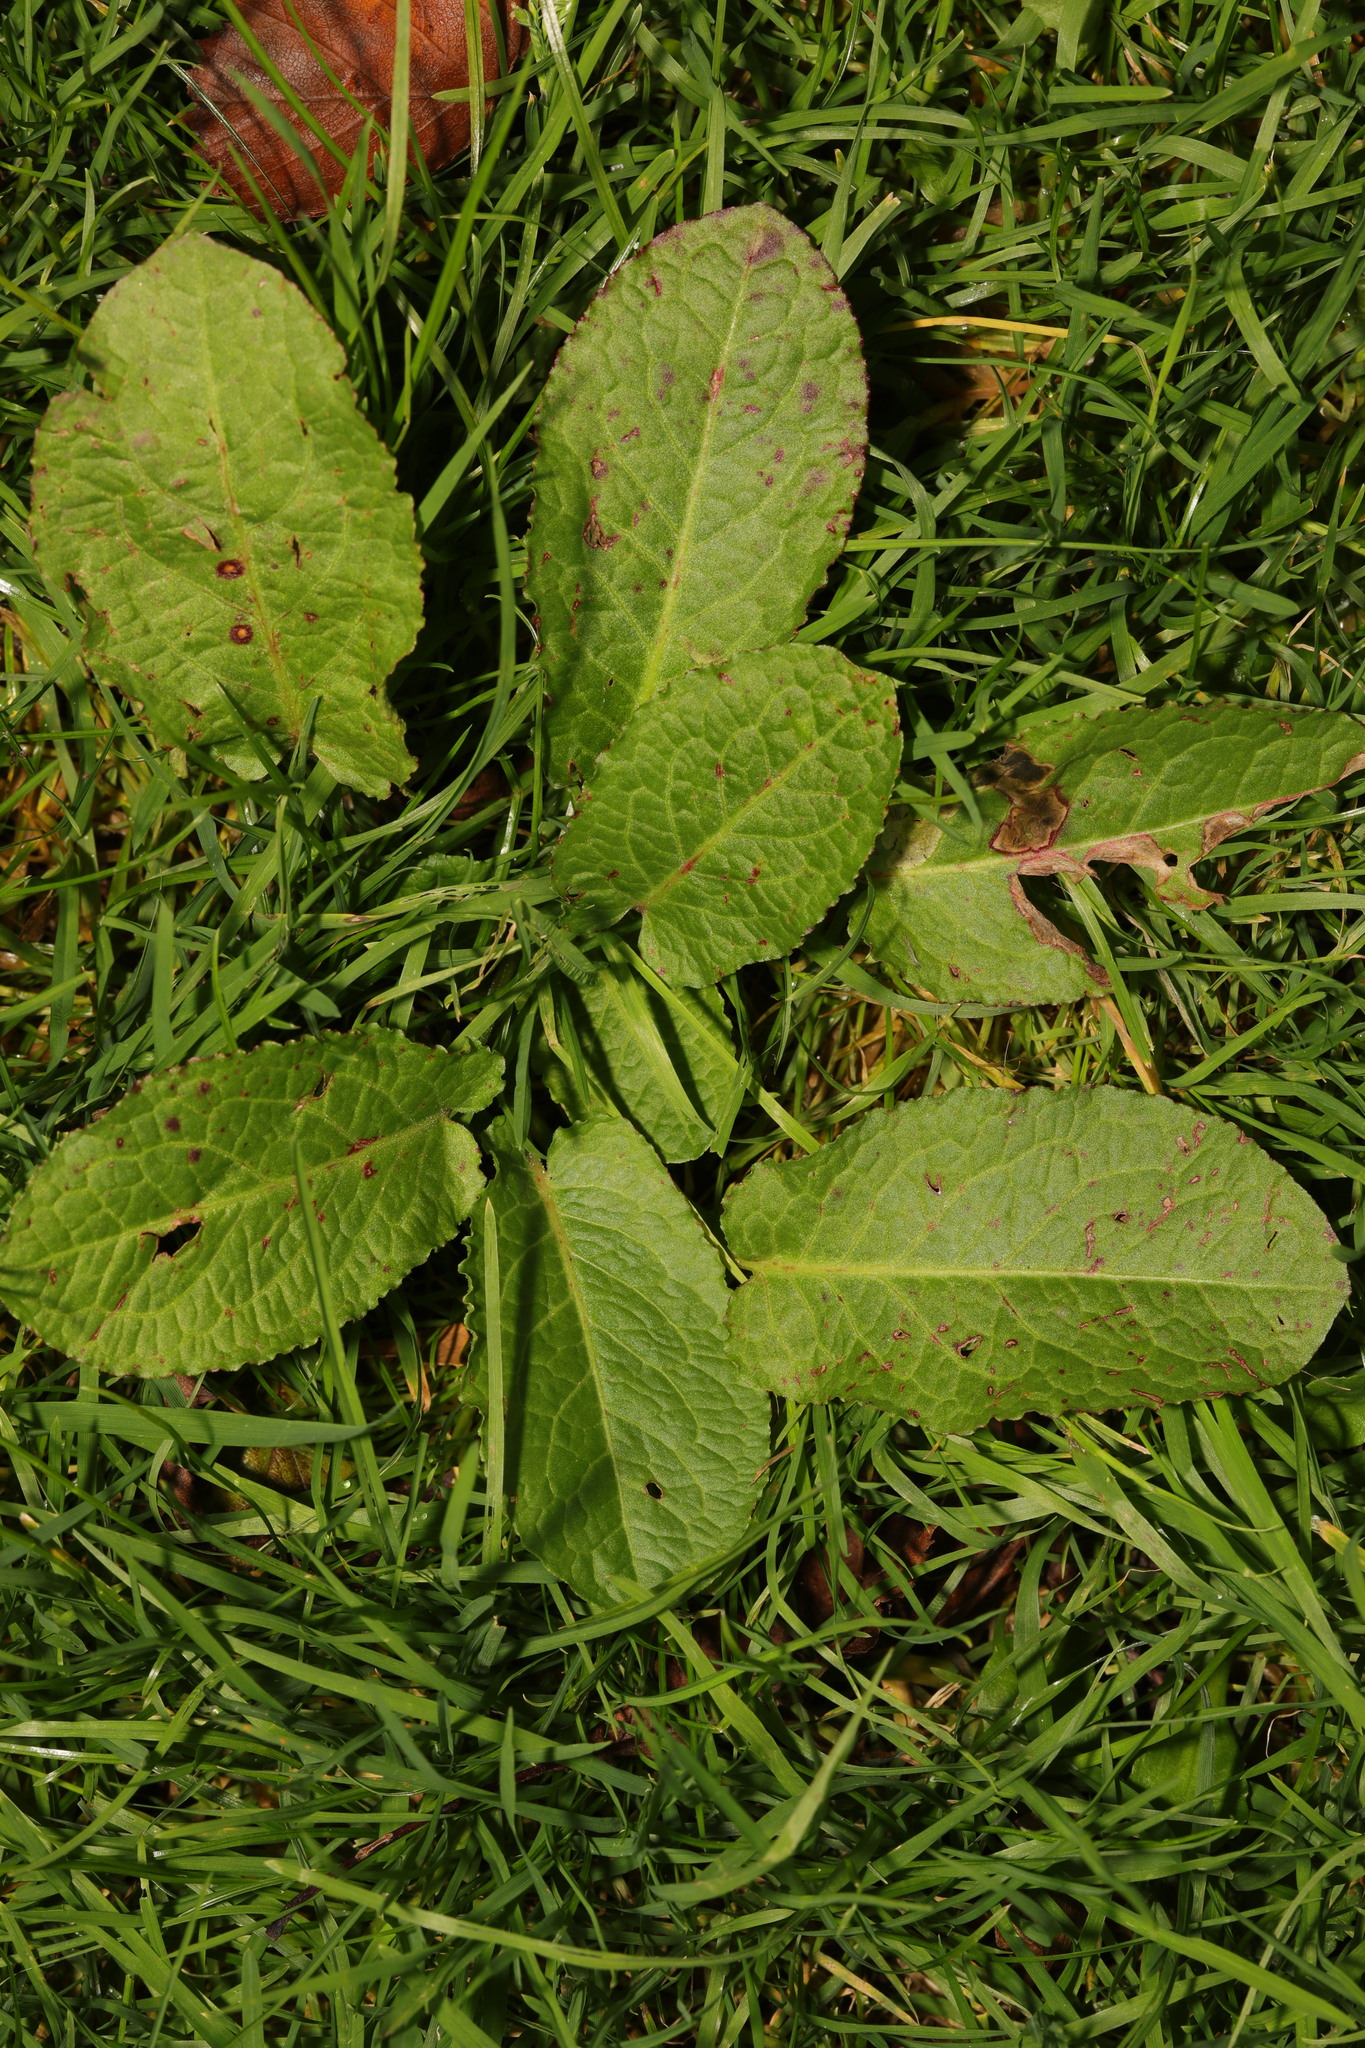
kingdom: Plantae
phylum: Tracheophyta
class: Magnoliopsida
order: Caryophyllales
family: Polygonaceae
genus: Rumex
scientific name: Rumex obtusifolius
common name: Bitter dock
